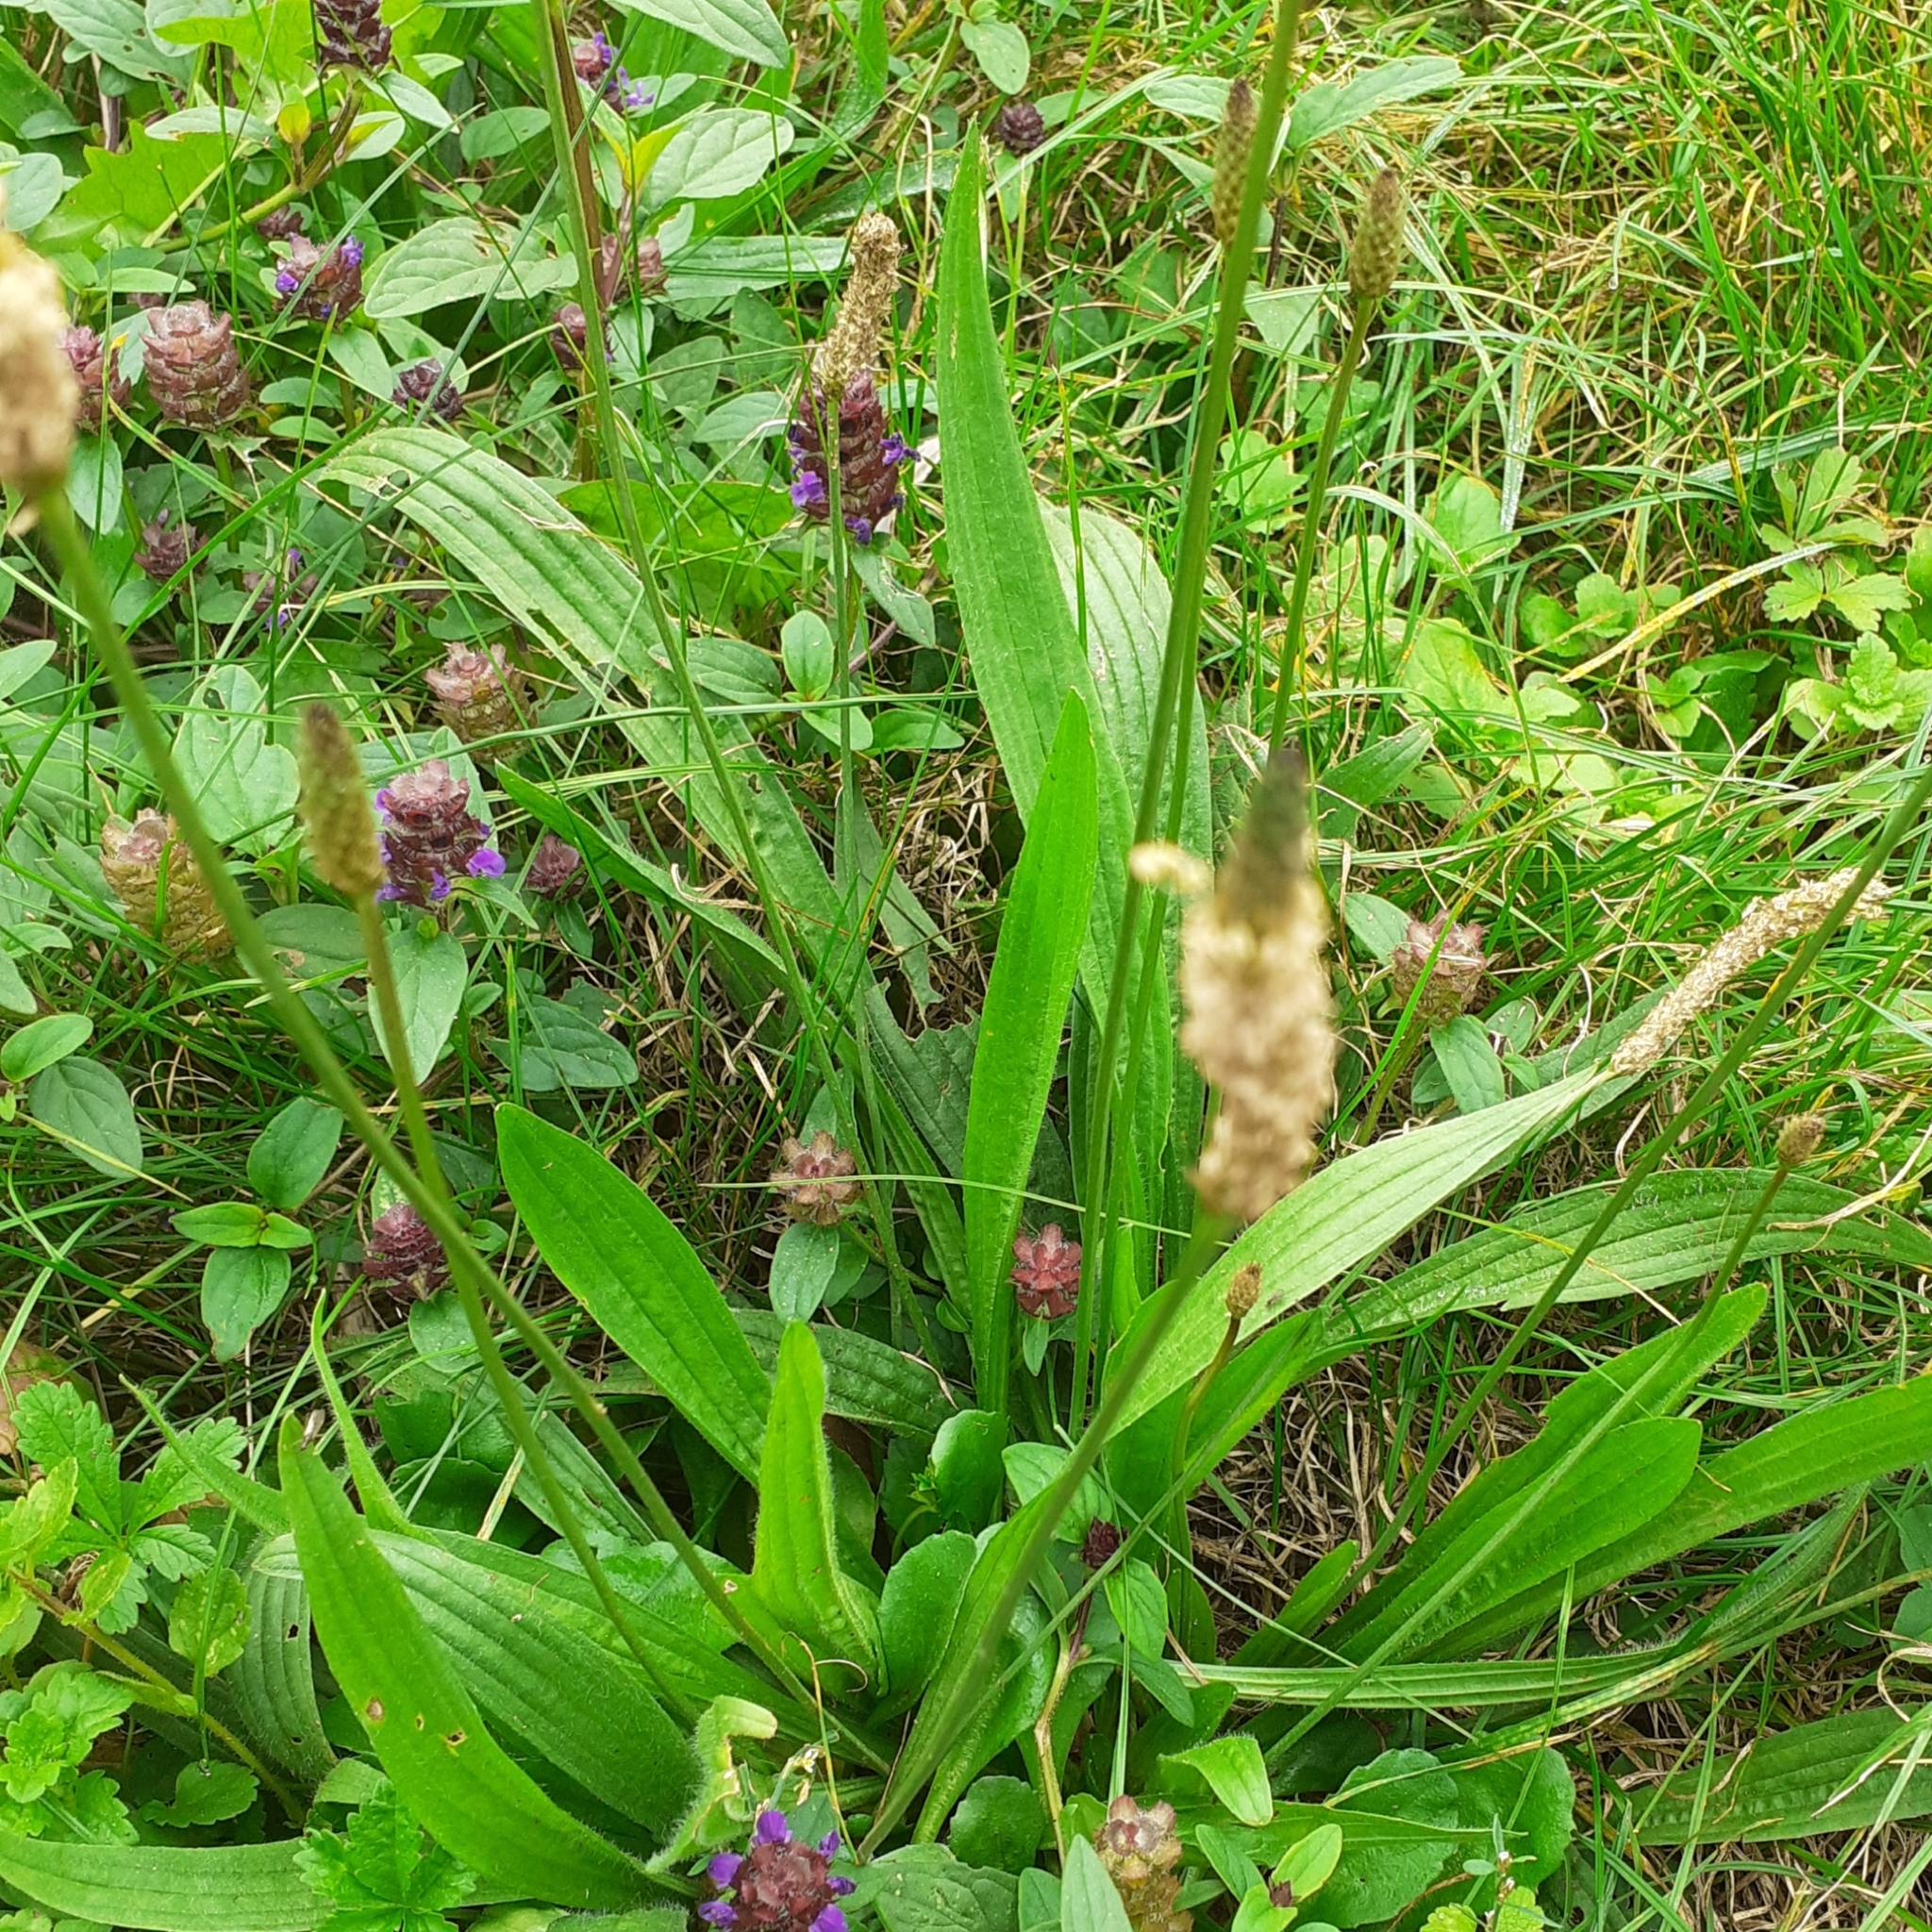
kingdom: Plantae
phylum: Tracheophyta
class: Magnoliopsida
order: Lamiales
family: Plantaginaceae
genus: Plantago
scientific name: Plantago lanceolata
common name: Ribwort plantain
